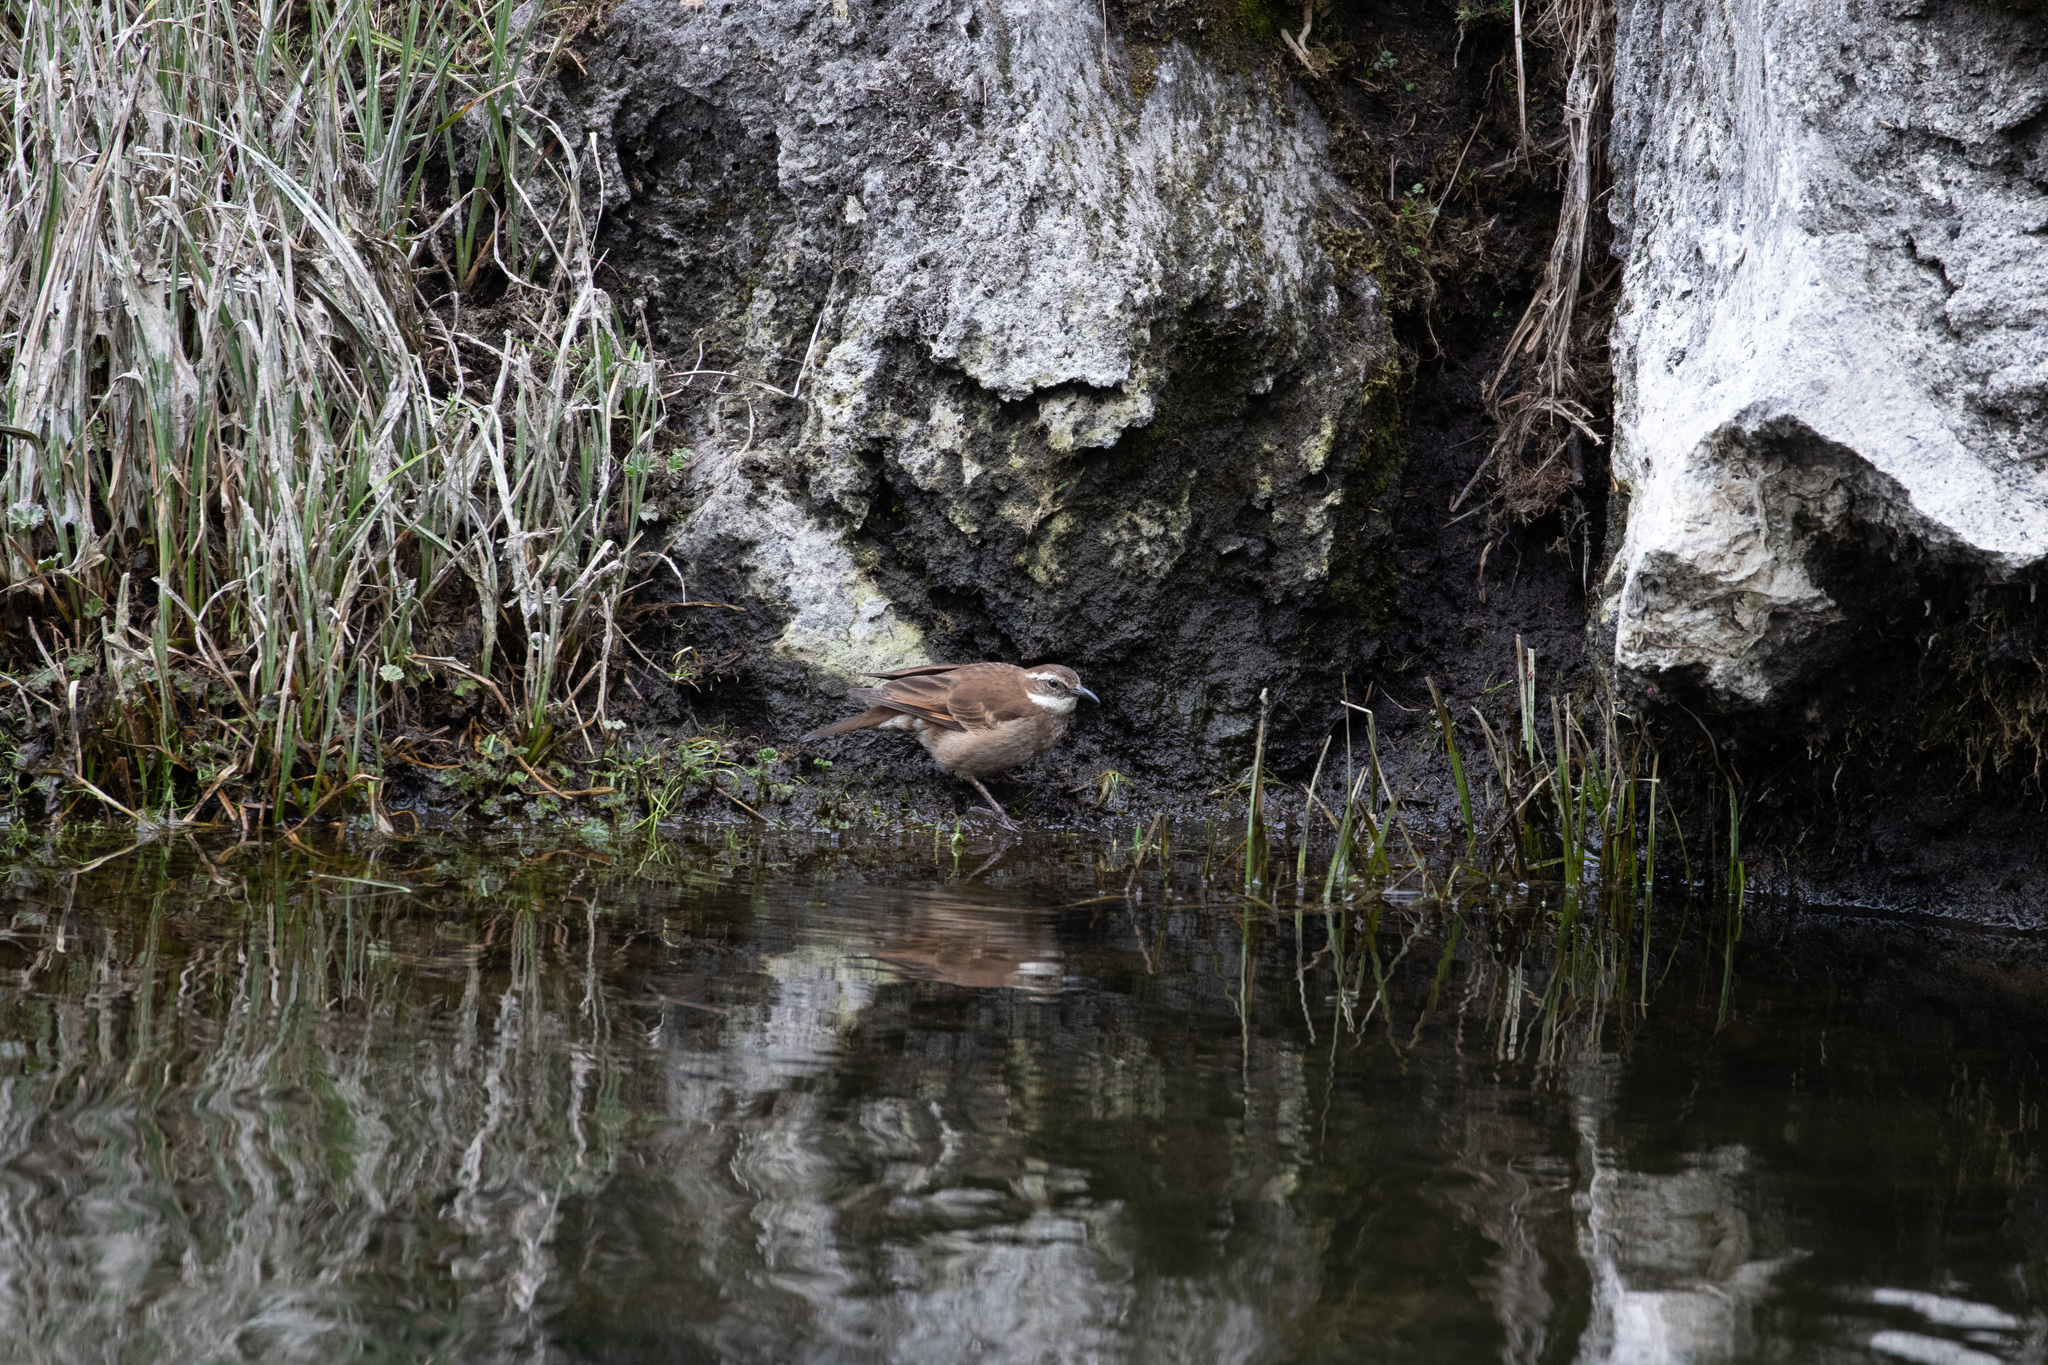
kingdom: Animalia
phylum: Chordata
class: Aves
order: Passeriformes
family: Furnariidae
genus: Cinclodes
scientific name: Cinclodes excelsior
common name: Stout-billed cinclodes
